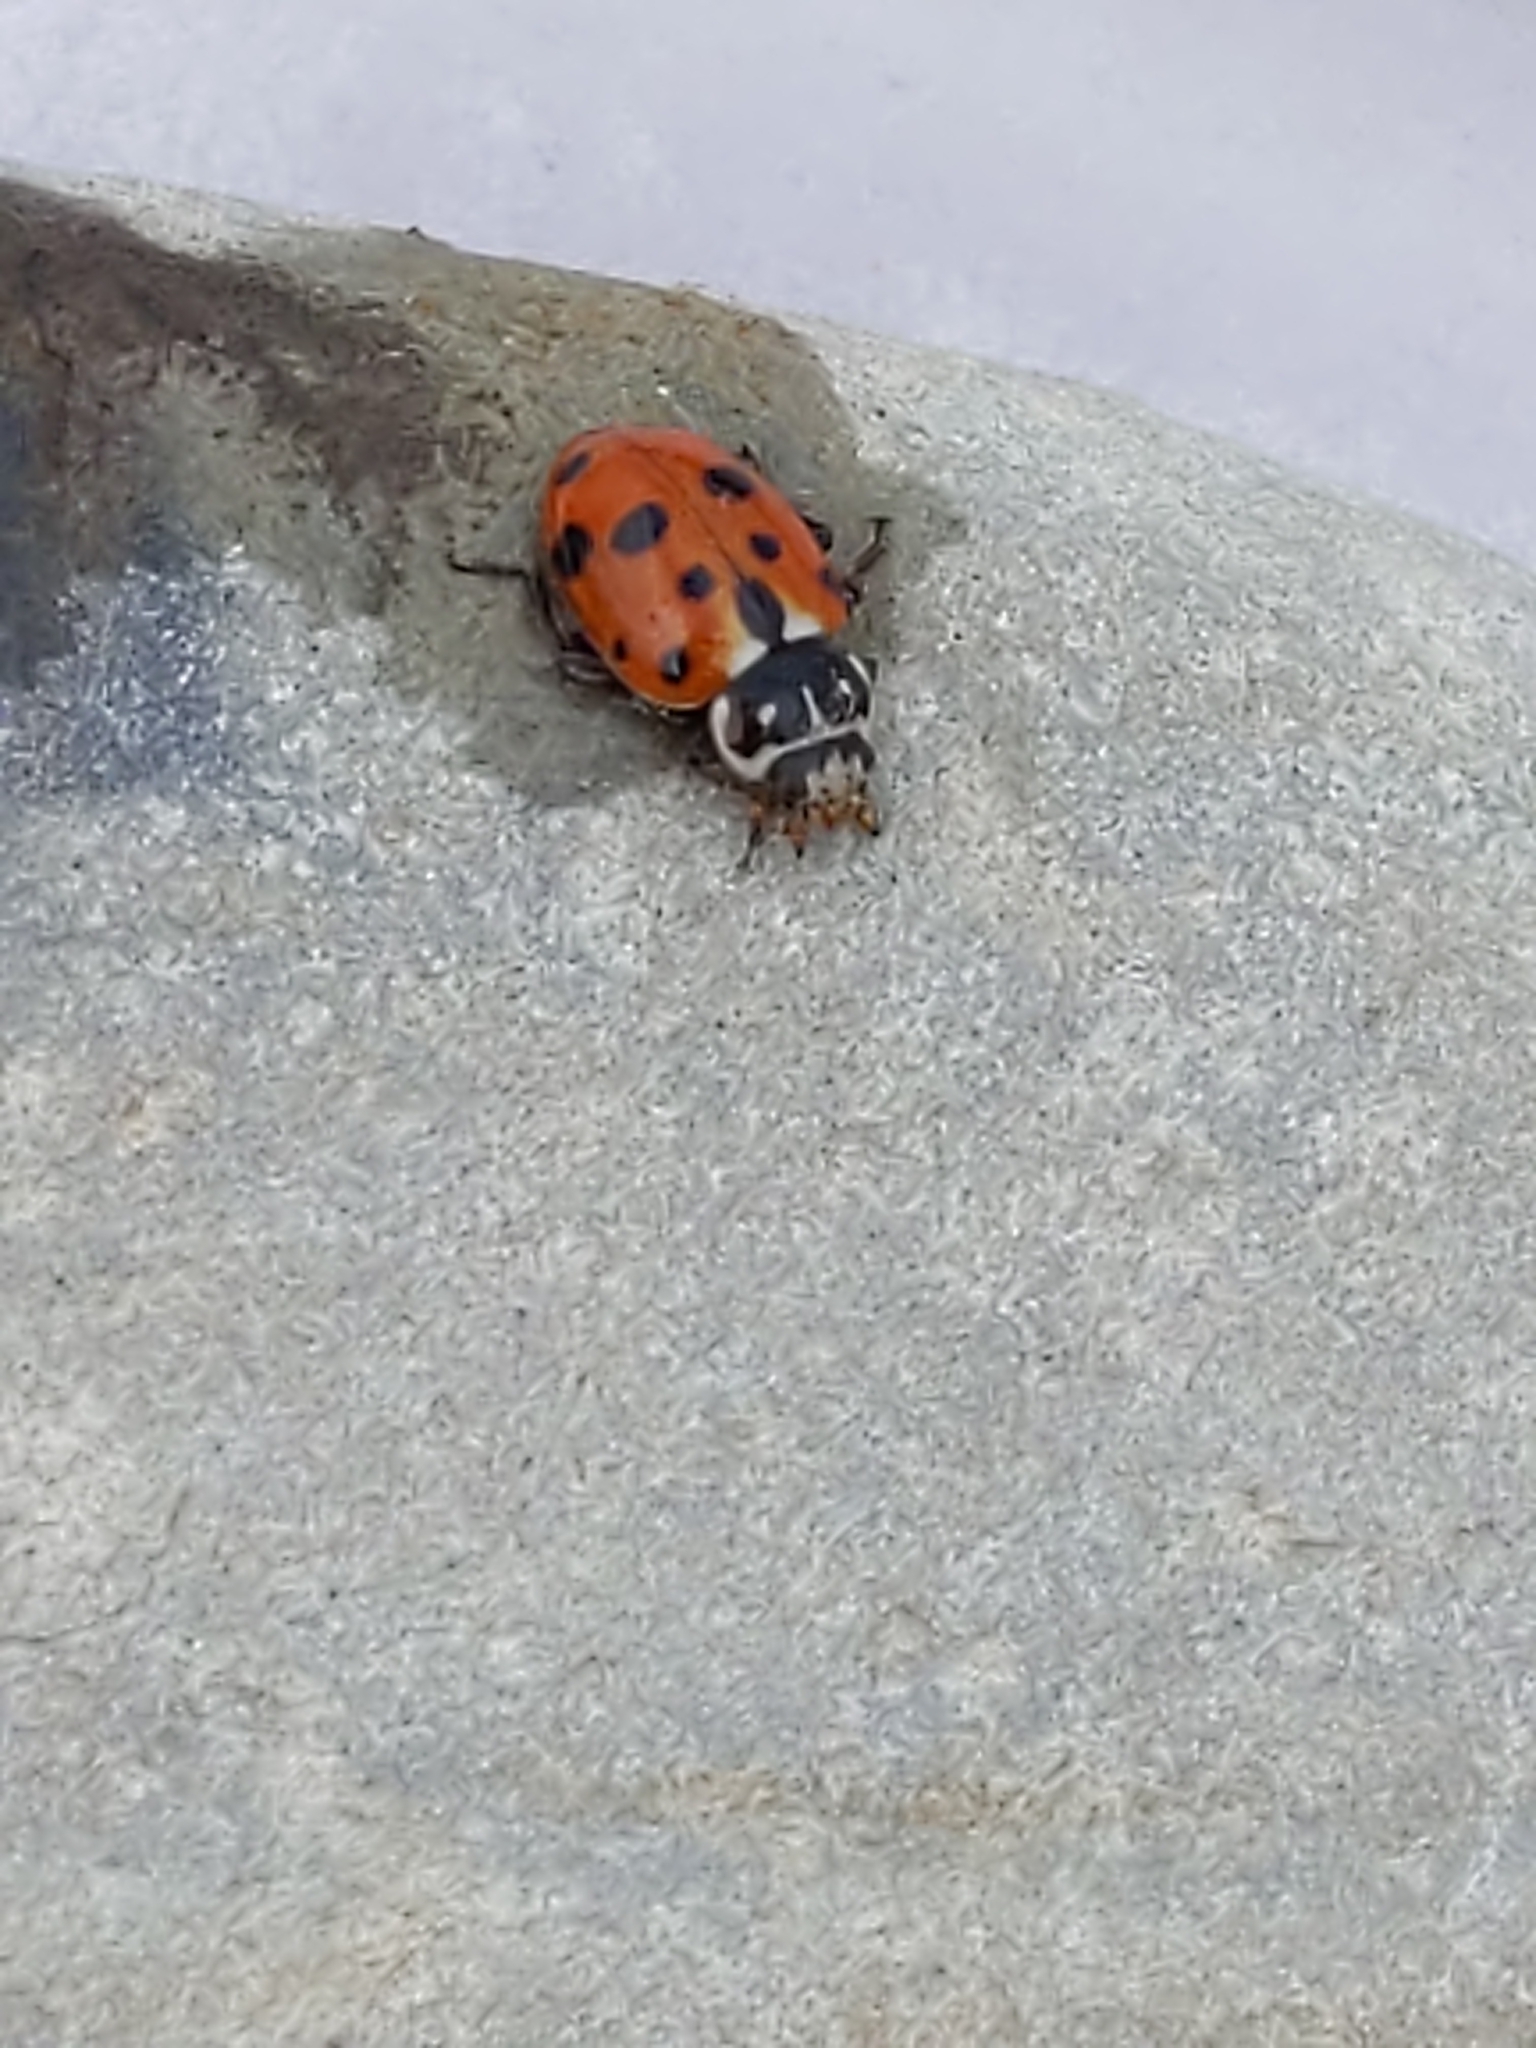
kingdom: Animalia
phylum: Arthropoda
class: Insecta
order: Coleoptera
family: Coccinellidae
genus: Hippodamia
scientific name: Hippodamia variegata
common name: Ladybird beetle
